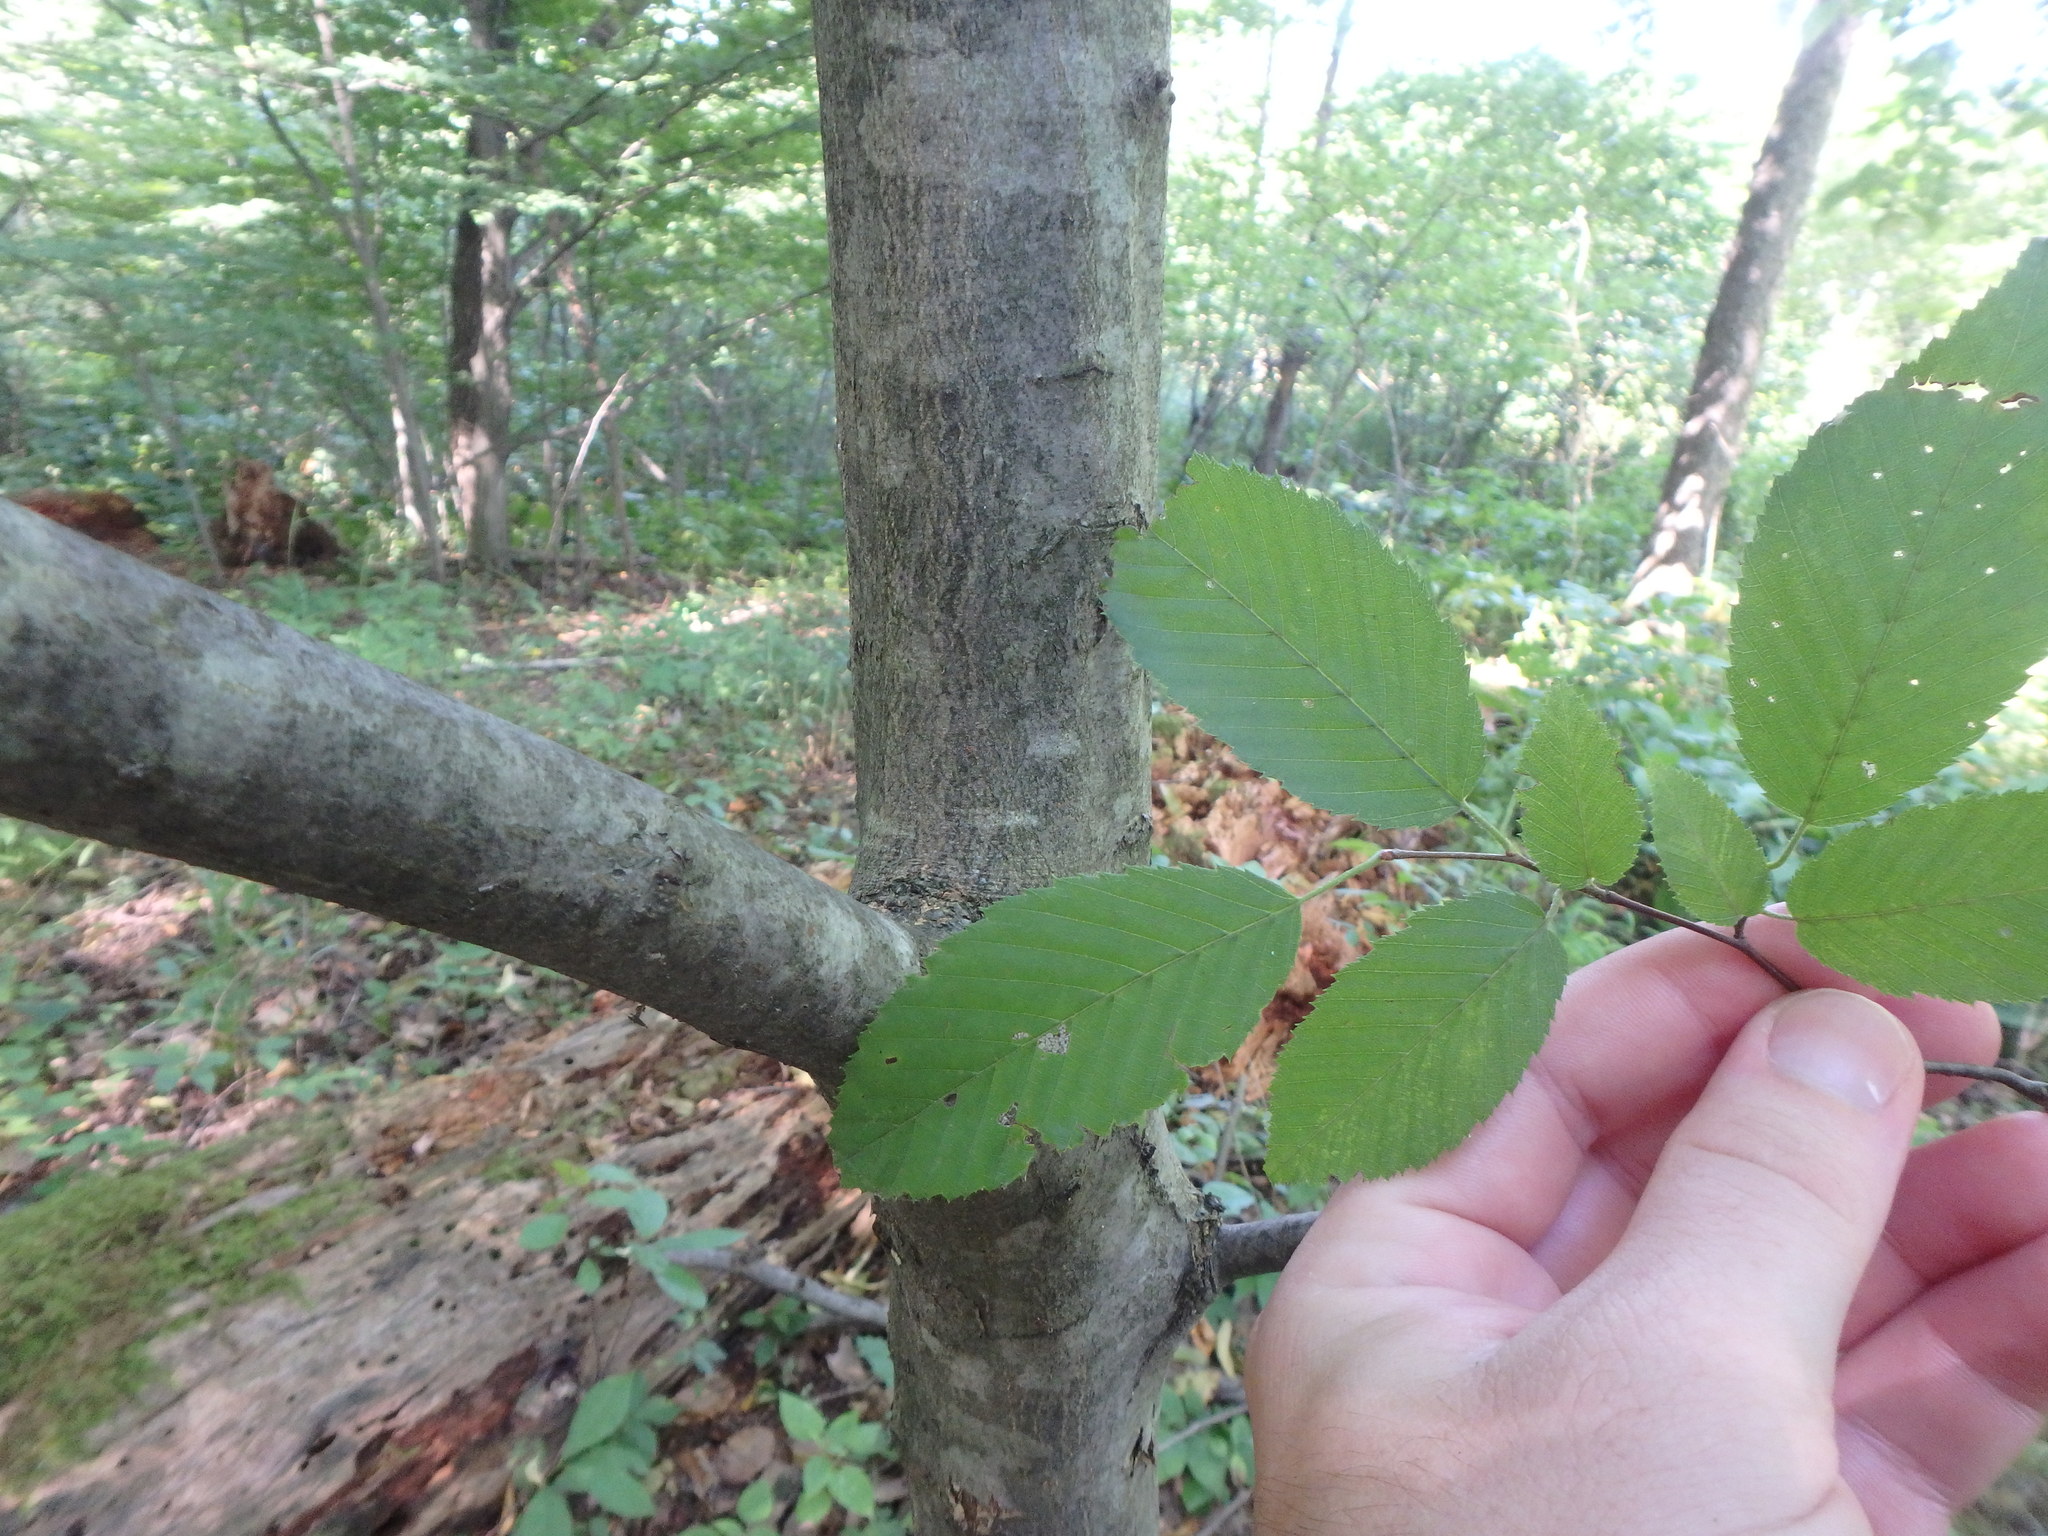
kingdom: Plantae
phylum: Tracheophyta
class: Magnoliopsida
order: Fagales
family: Betulaceae
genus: Carpinus
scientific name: Carpinus caroliniana
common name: American hornbeam
